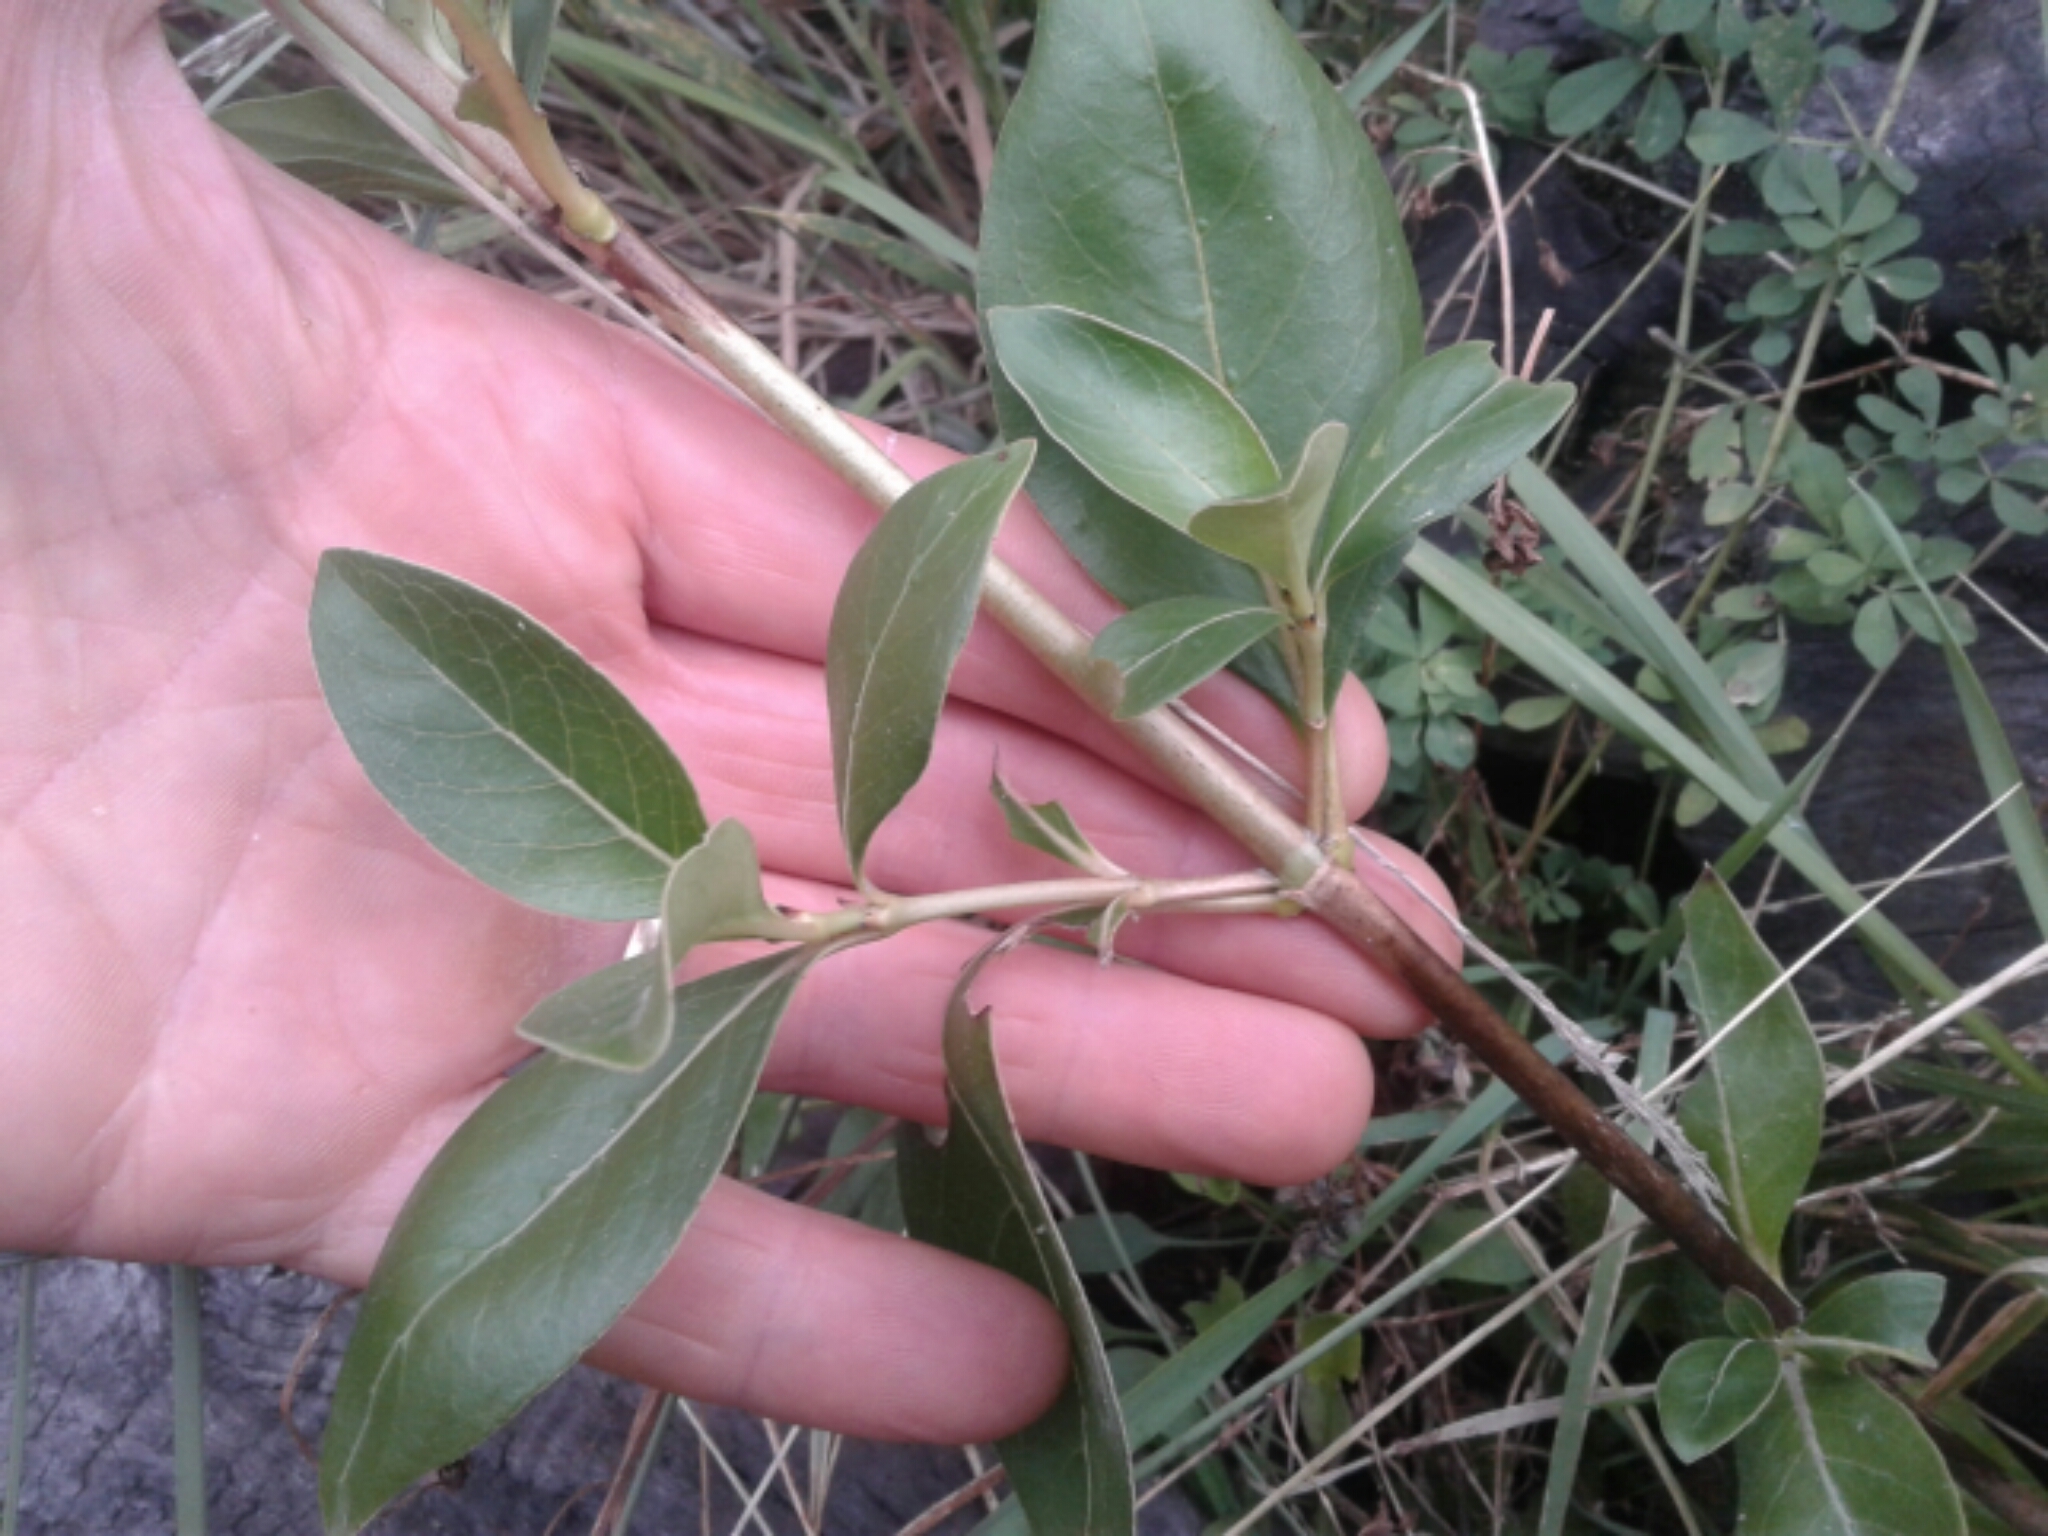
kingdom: Plantae
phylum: Tracheophyta
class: Magnoliopsida
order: Gentianales
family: Rubiaceae
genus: Coprosma
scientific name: Coprosma lucida
